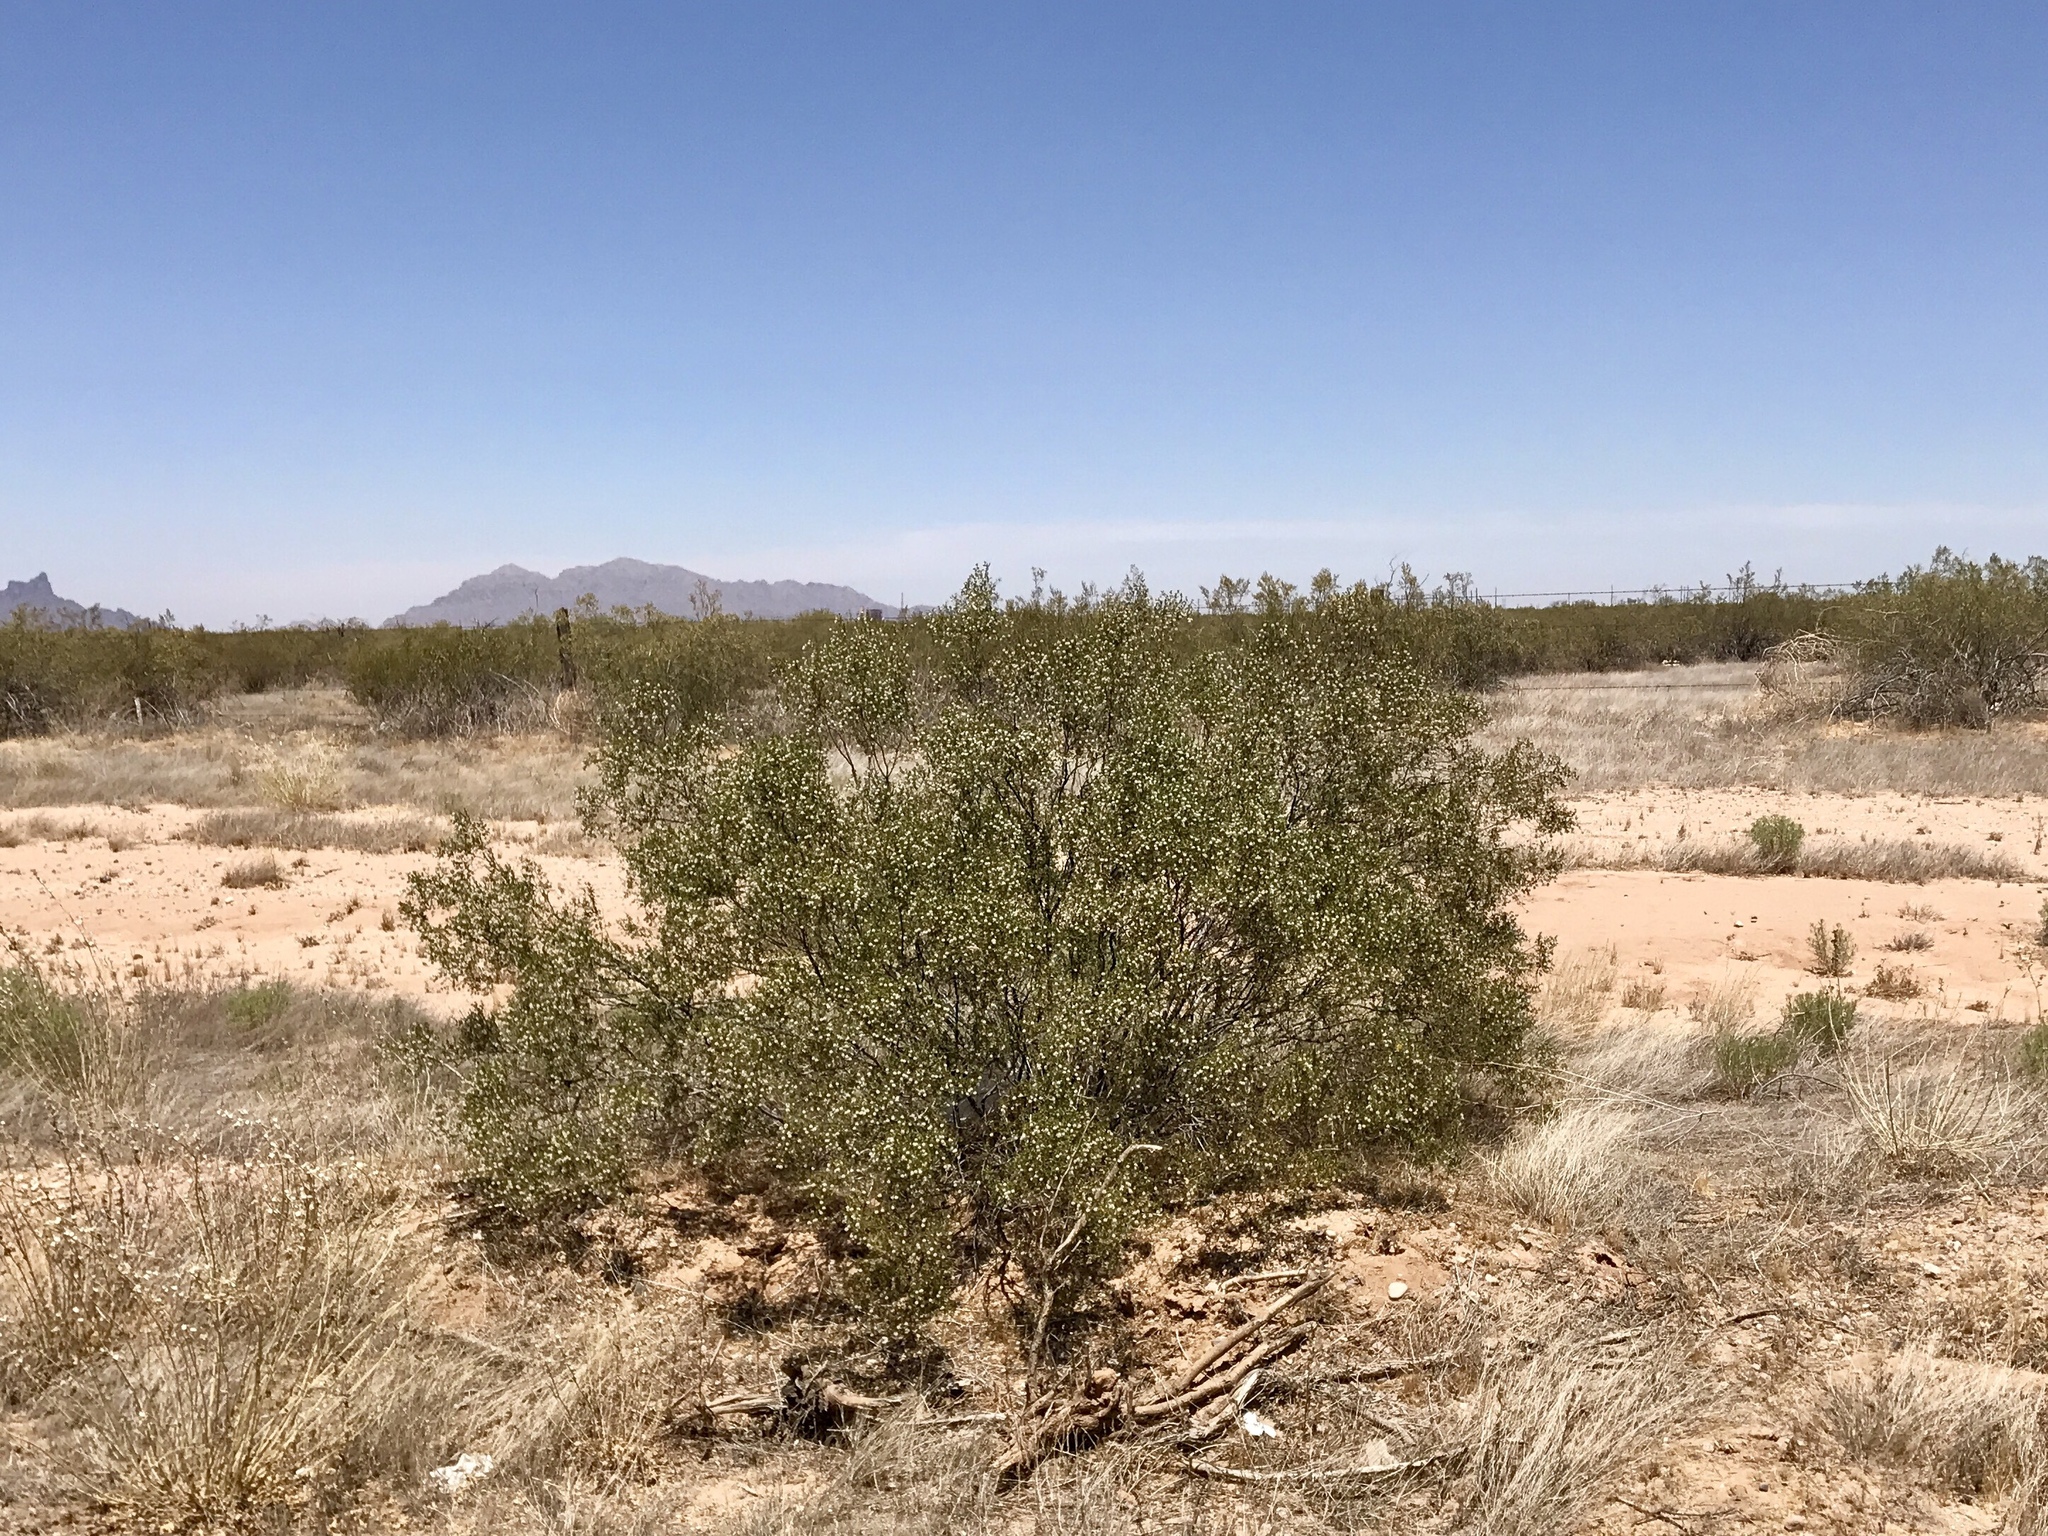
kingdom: Plantae
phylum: Tracheophyta
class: Magnoliopsida
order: Zygophyllales
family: Zygophyllaceae
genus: Larrea
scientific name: Larrea tridentata
